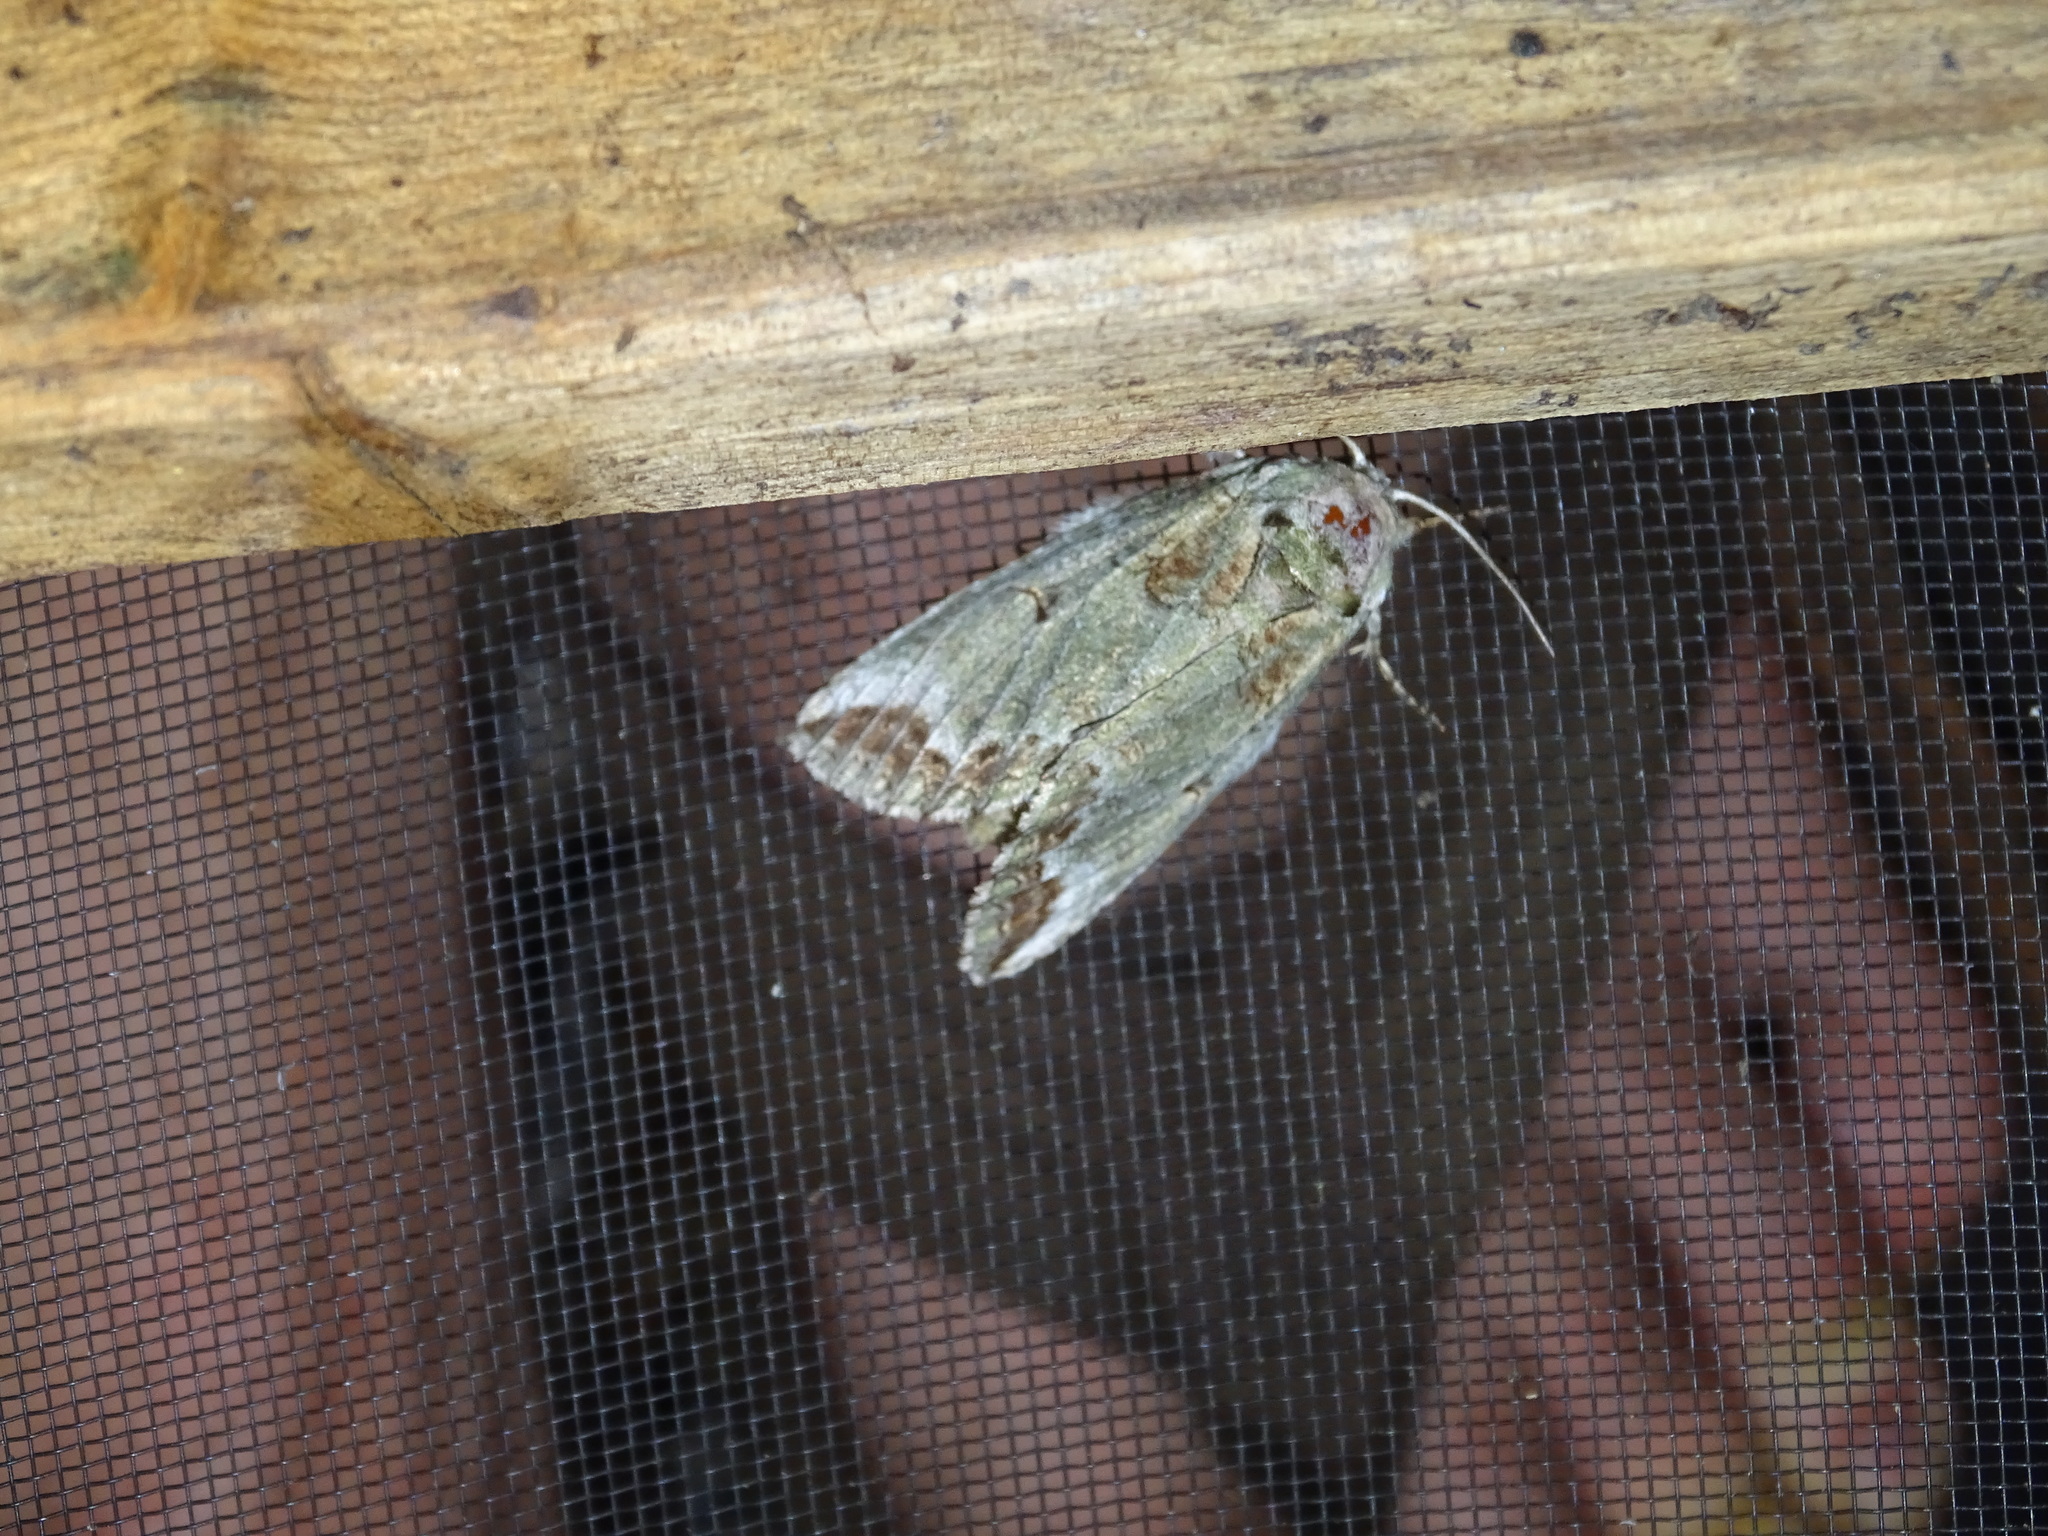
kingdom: Animalia
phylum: Arthropoda
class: Insecta
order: Lepidoptera
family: Notodontidae
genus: Heterocampa
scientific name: Heterocampa astarte
